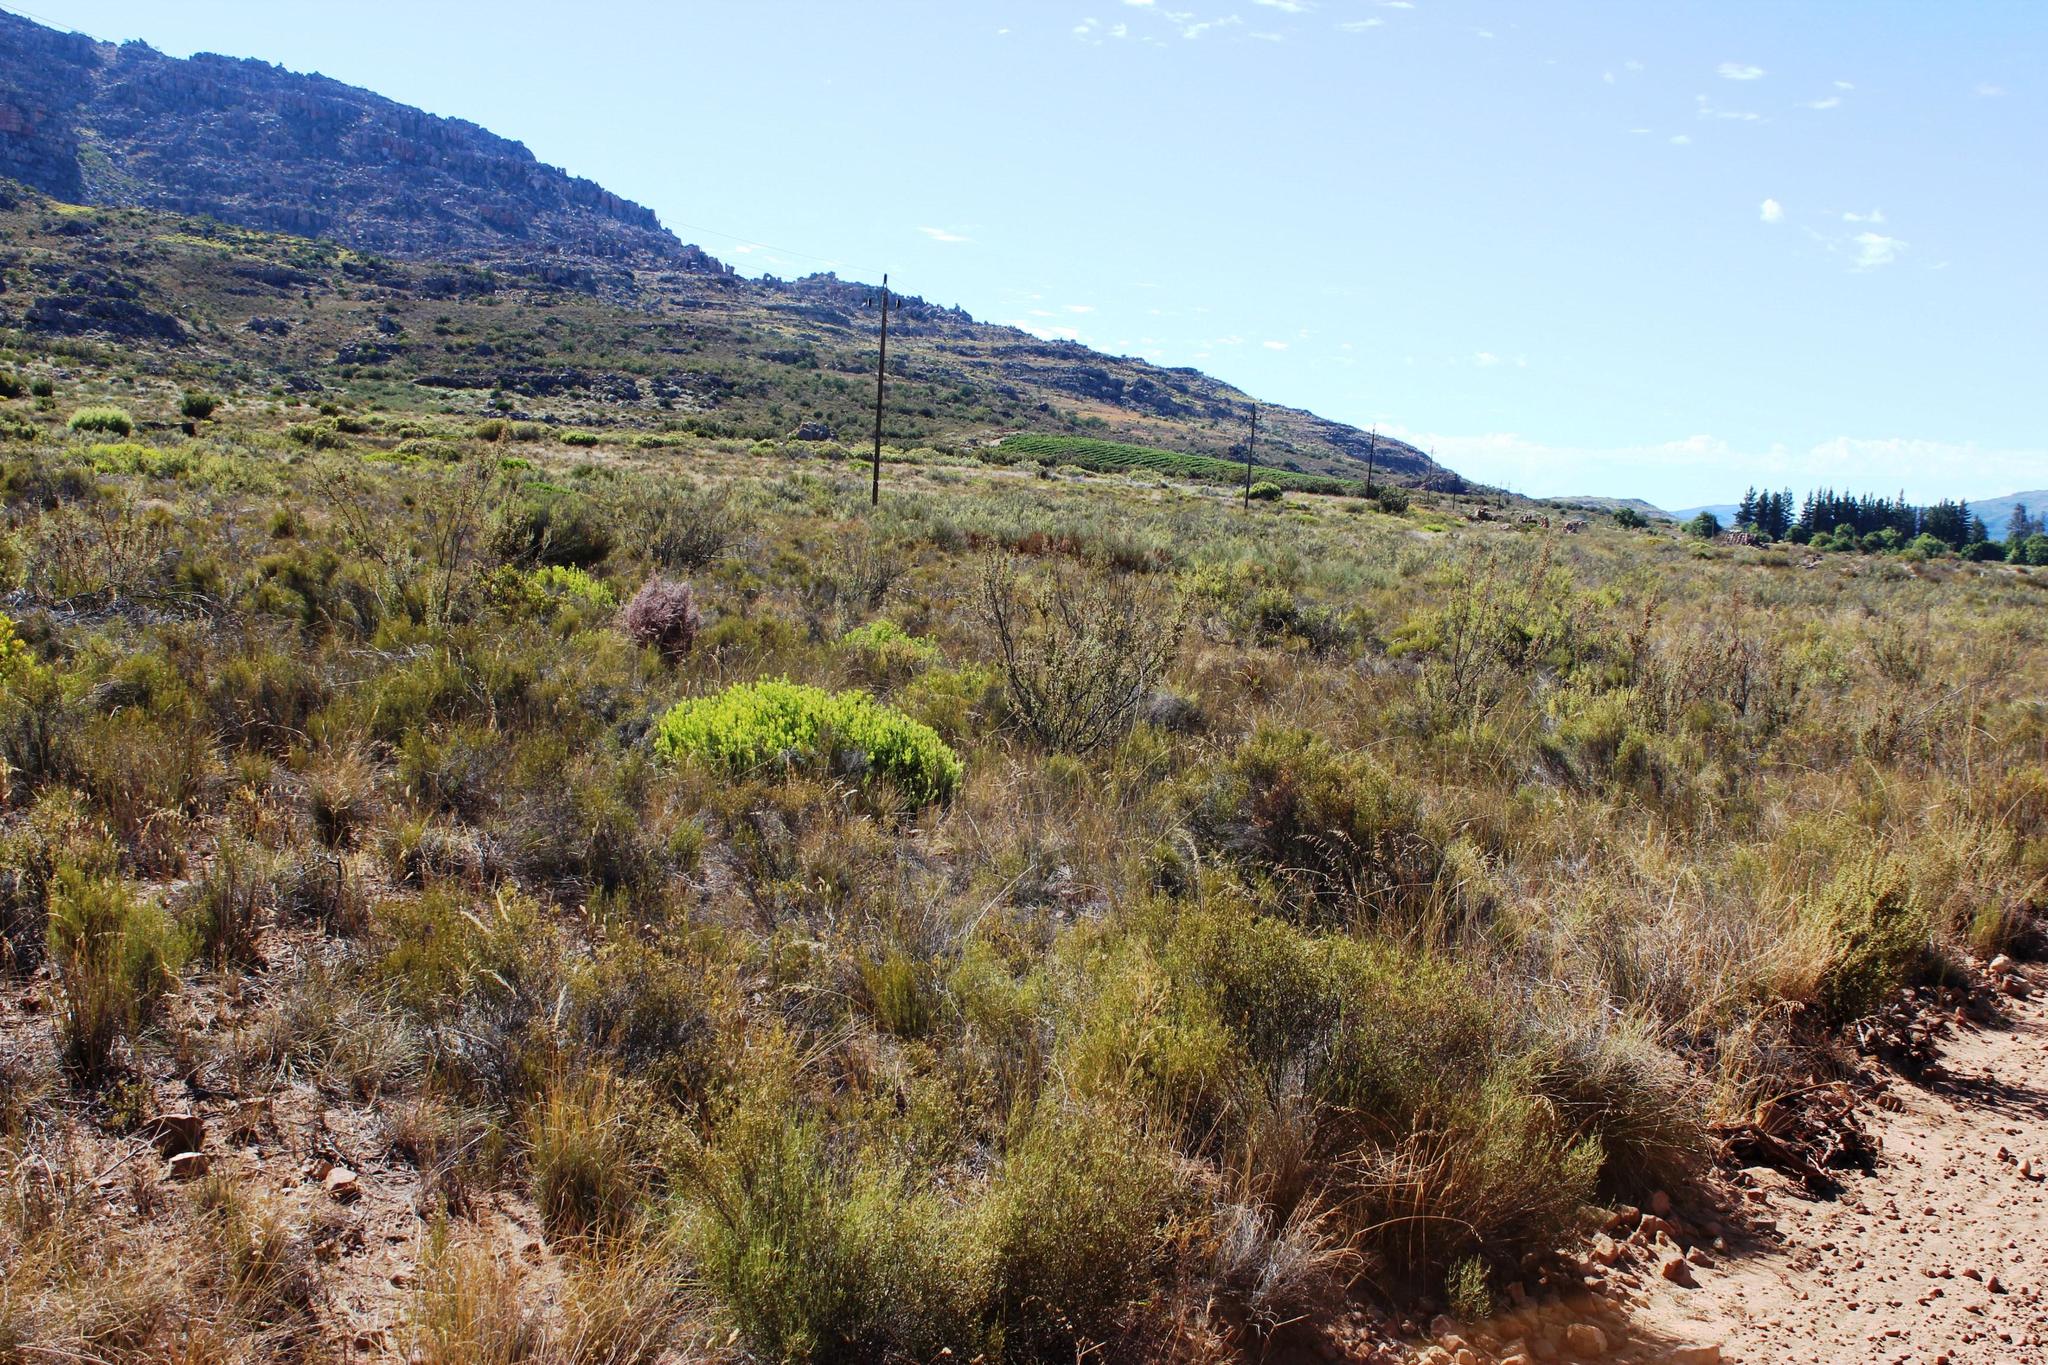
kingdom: Plantae
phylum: Tracheophyta
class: Magnoliopsida
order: Proteales
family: Proteaceae
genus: Leucadendron
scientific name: Leucadendron salignum
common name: Common sunshine conebush
